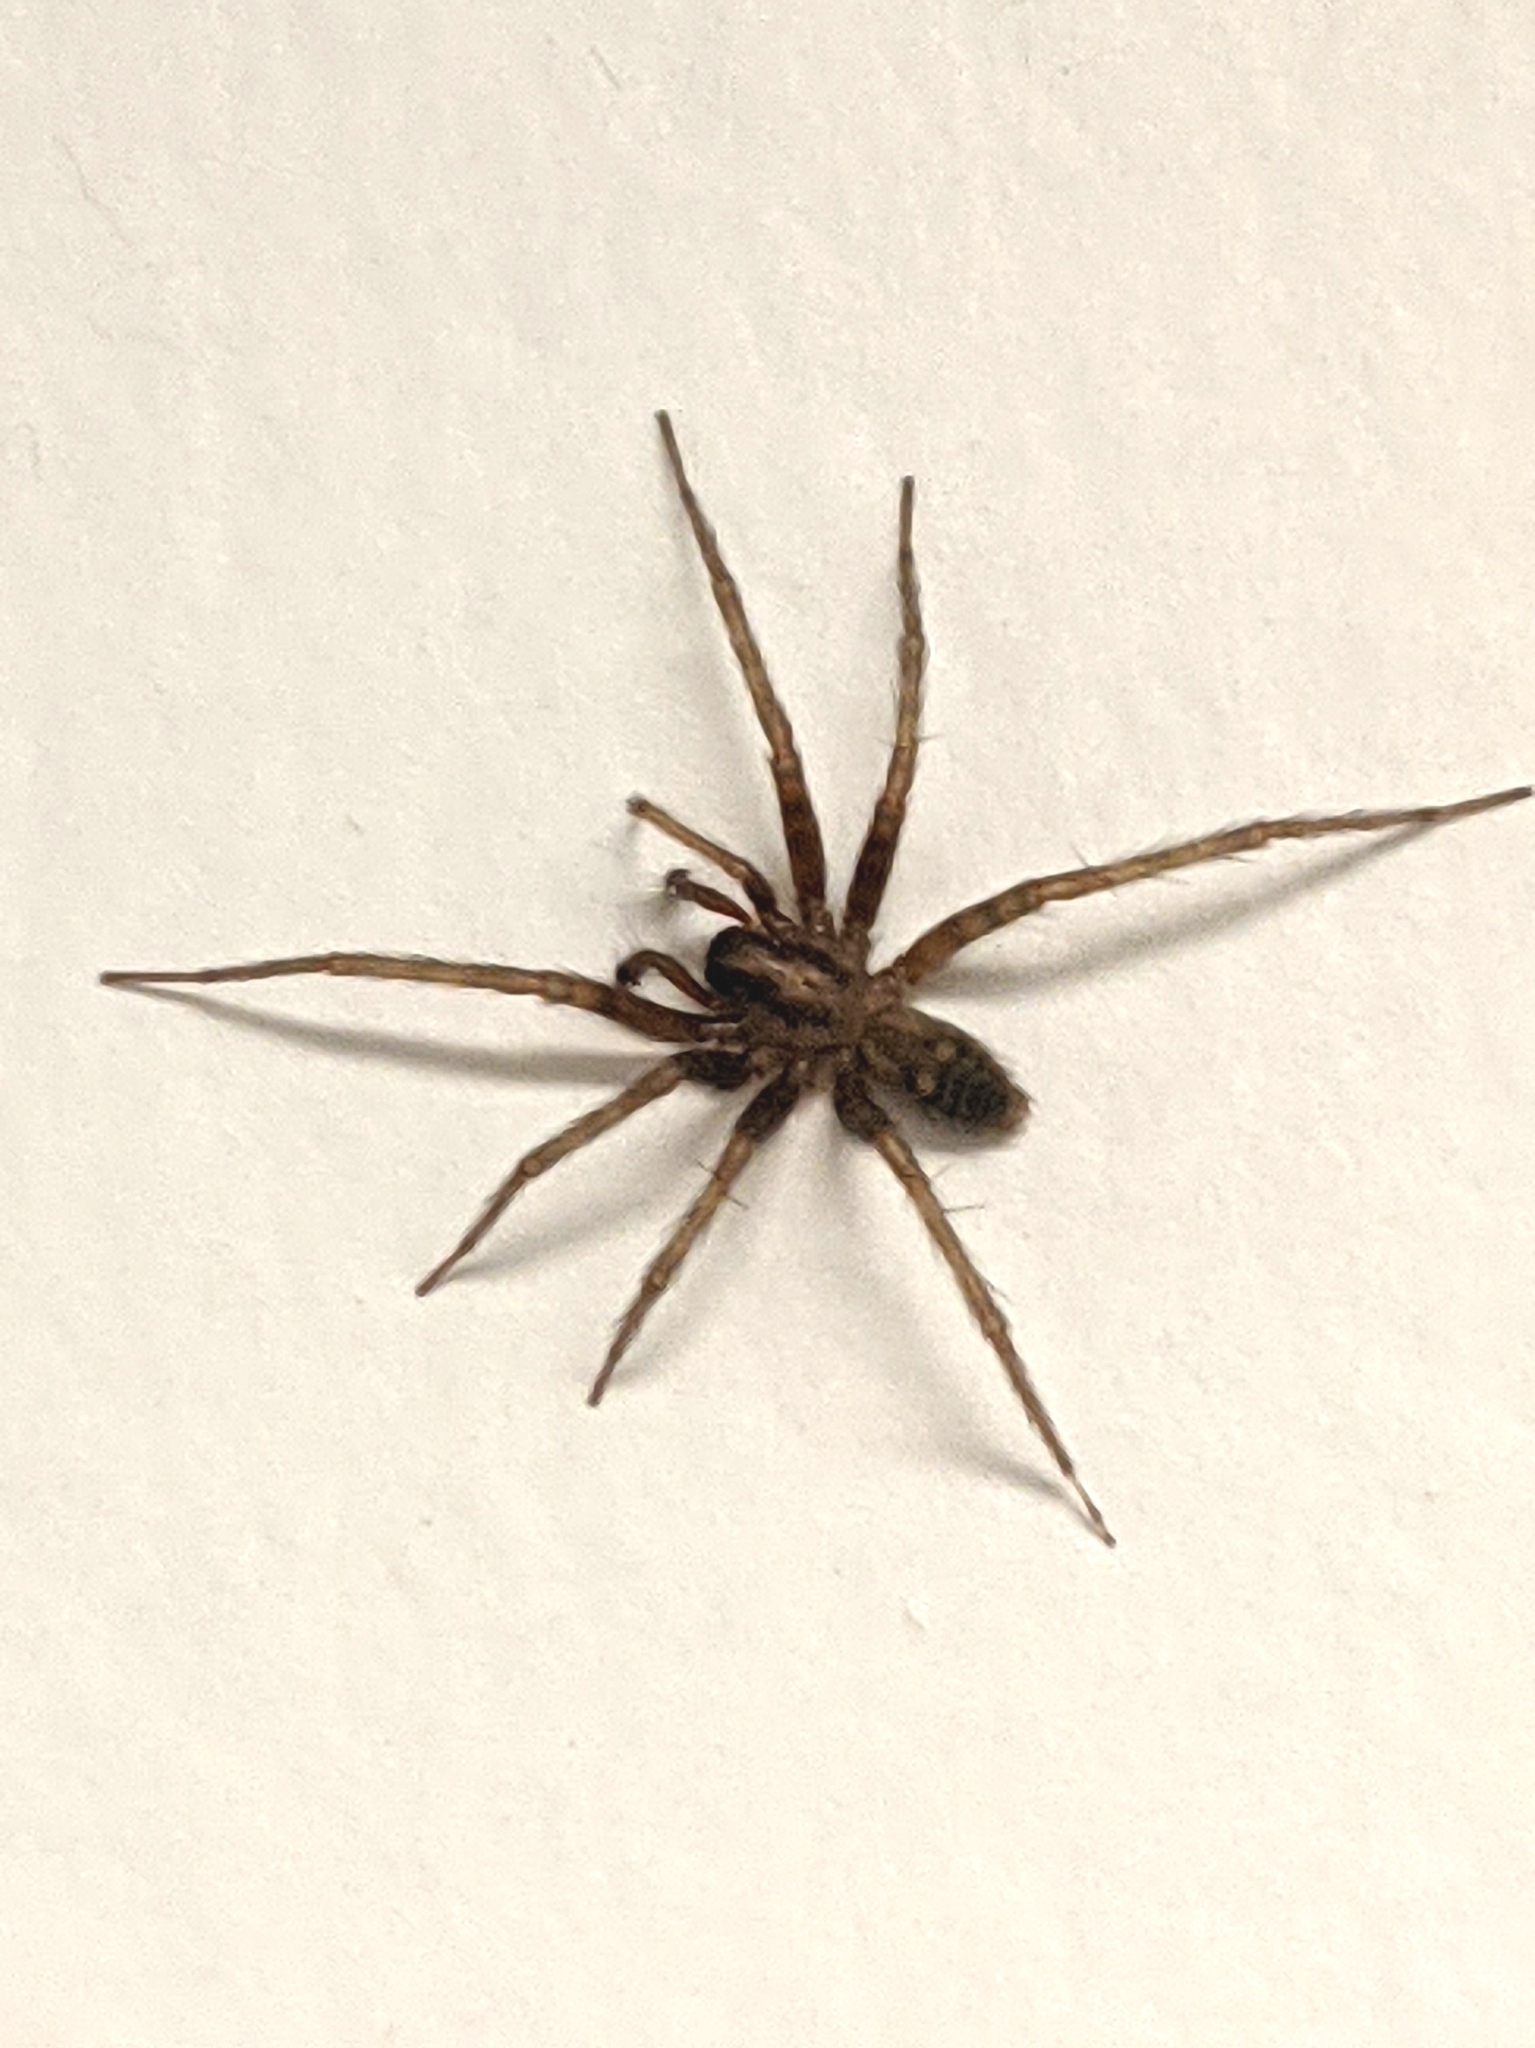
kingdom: Animalia
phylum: Arthropoda
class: Arachnida
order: Araneae
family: Agelenidae
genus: Tegenaria
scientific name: Tegenaria domestica
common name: Barn funnel weaver
